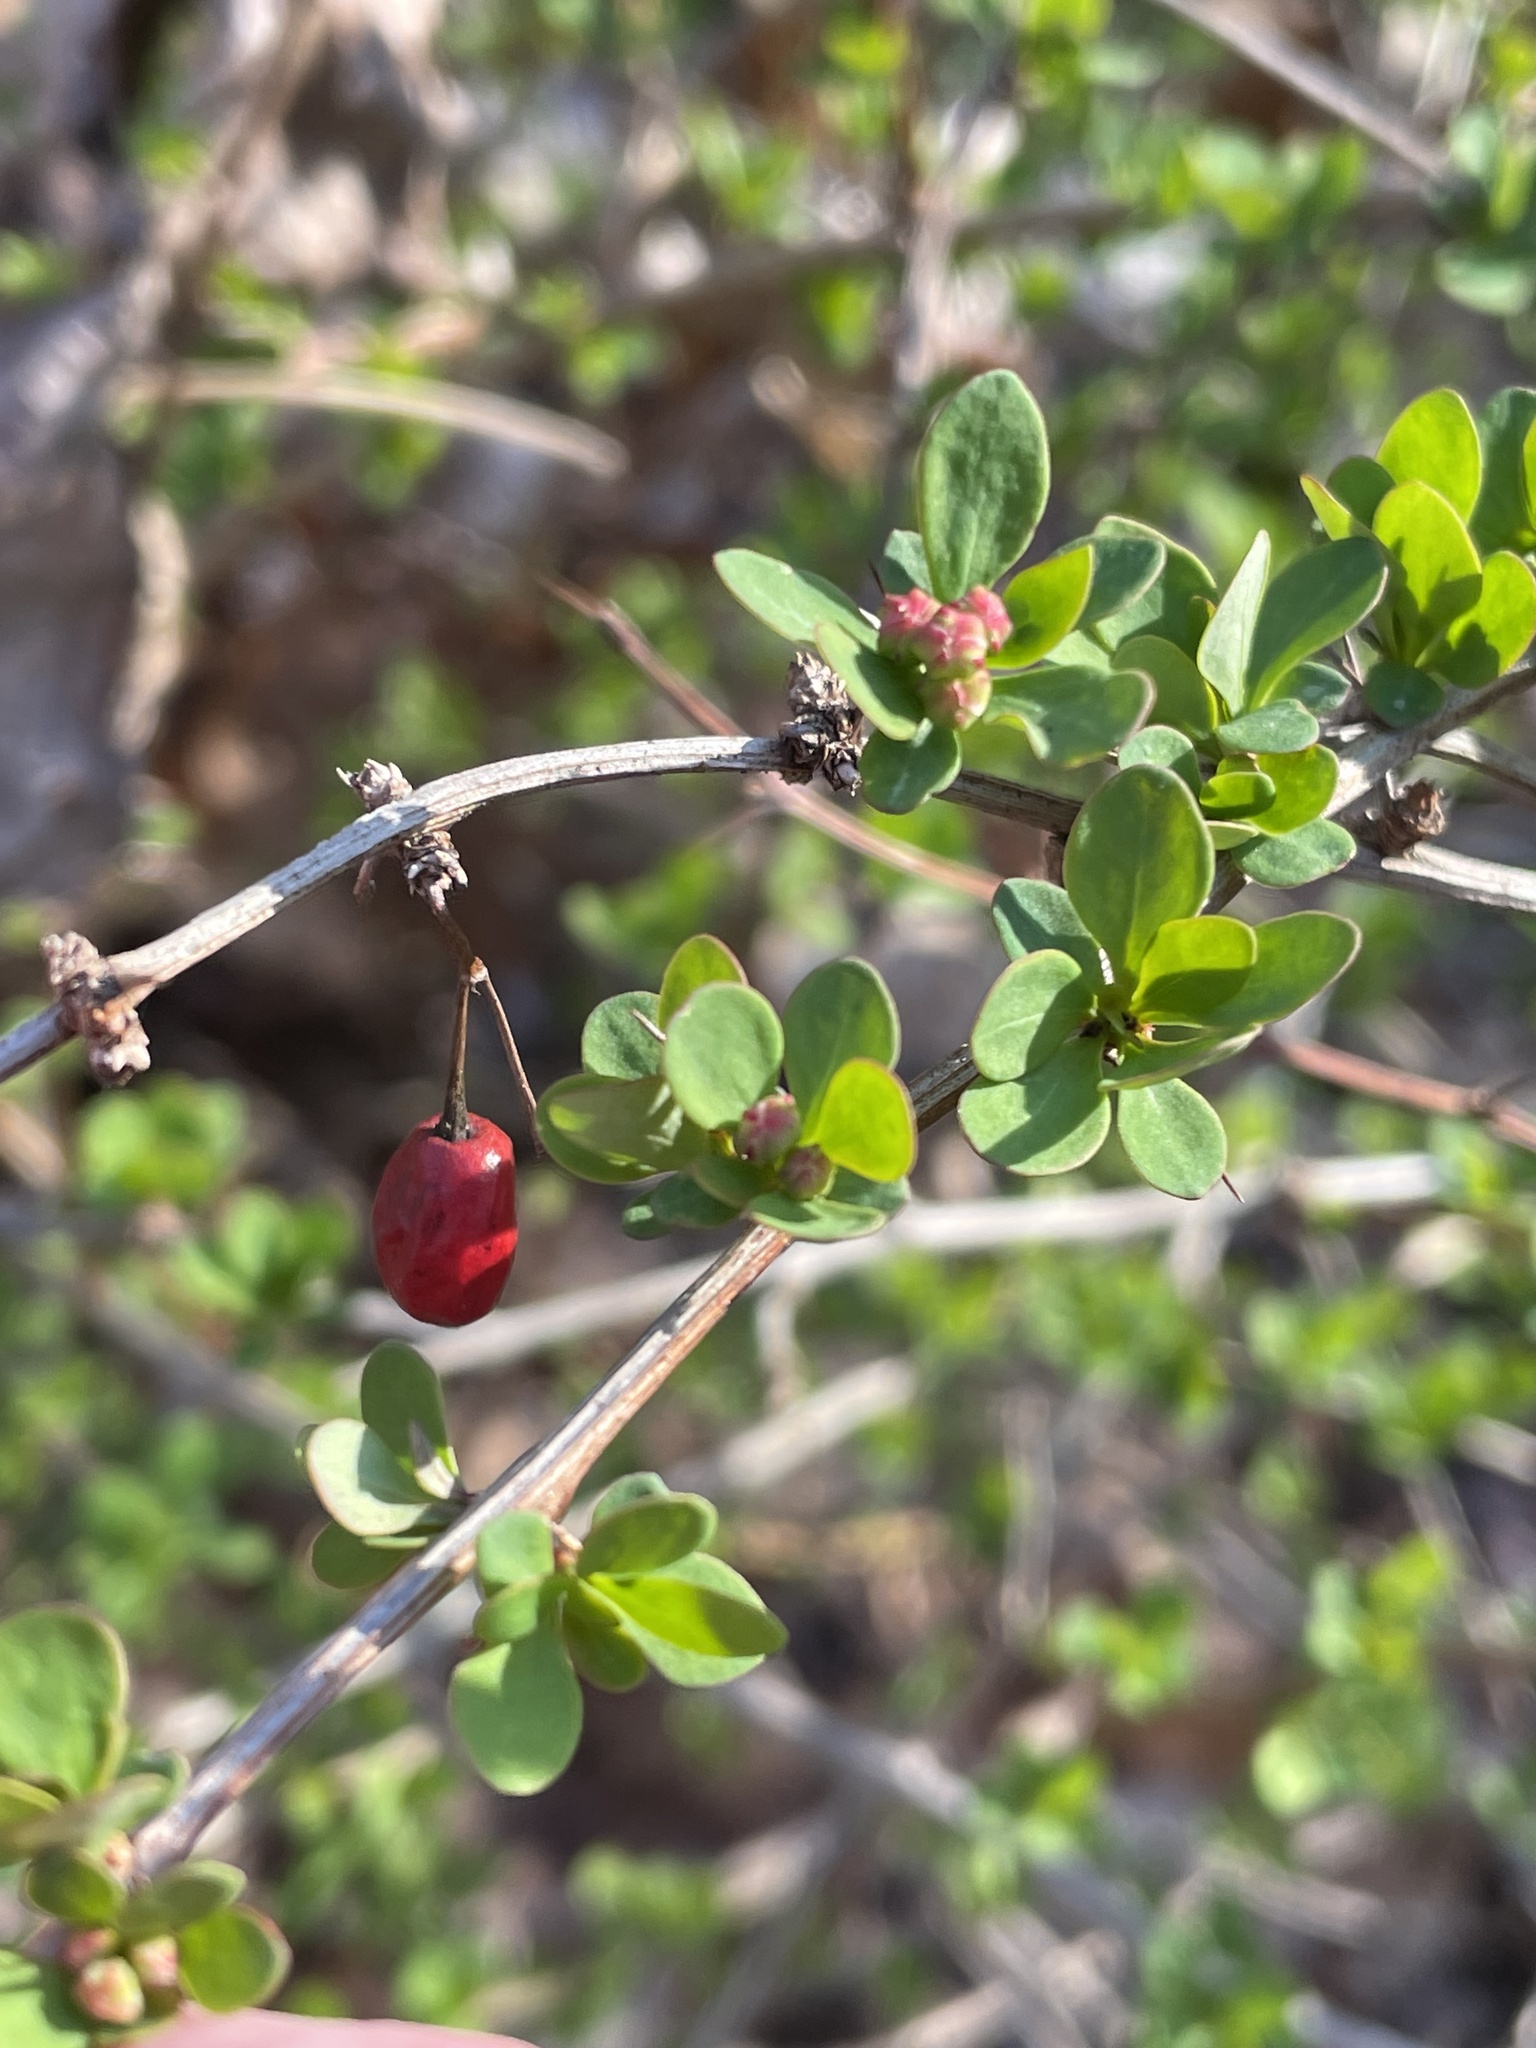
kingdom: Plantae
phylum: Tracheophyta
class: Magnoliopsida
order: Ranunculales
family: Berberidaceae
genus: Berberis
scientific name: Berberis thunbergii
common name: Japanese barberry
